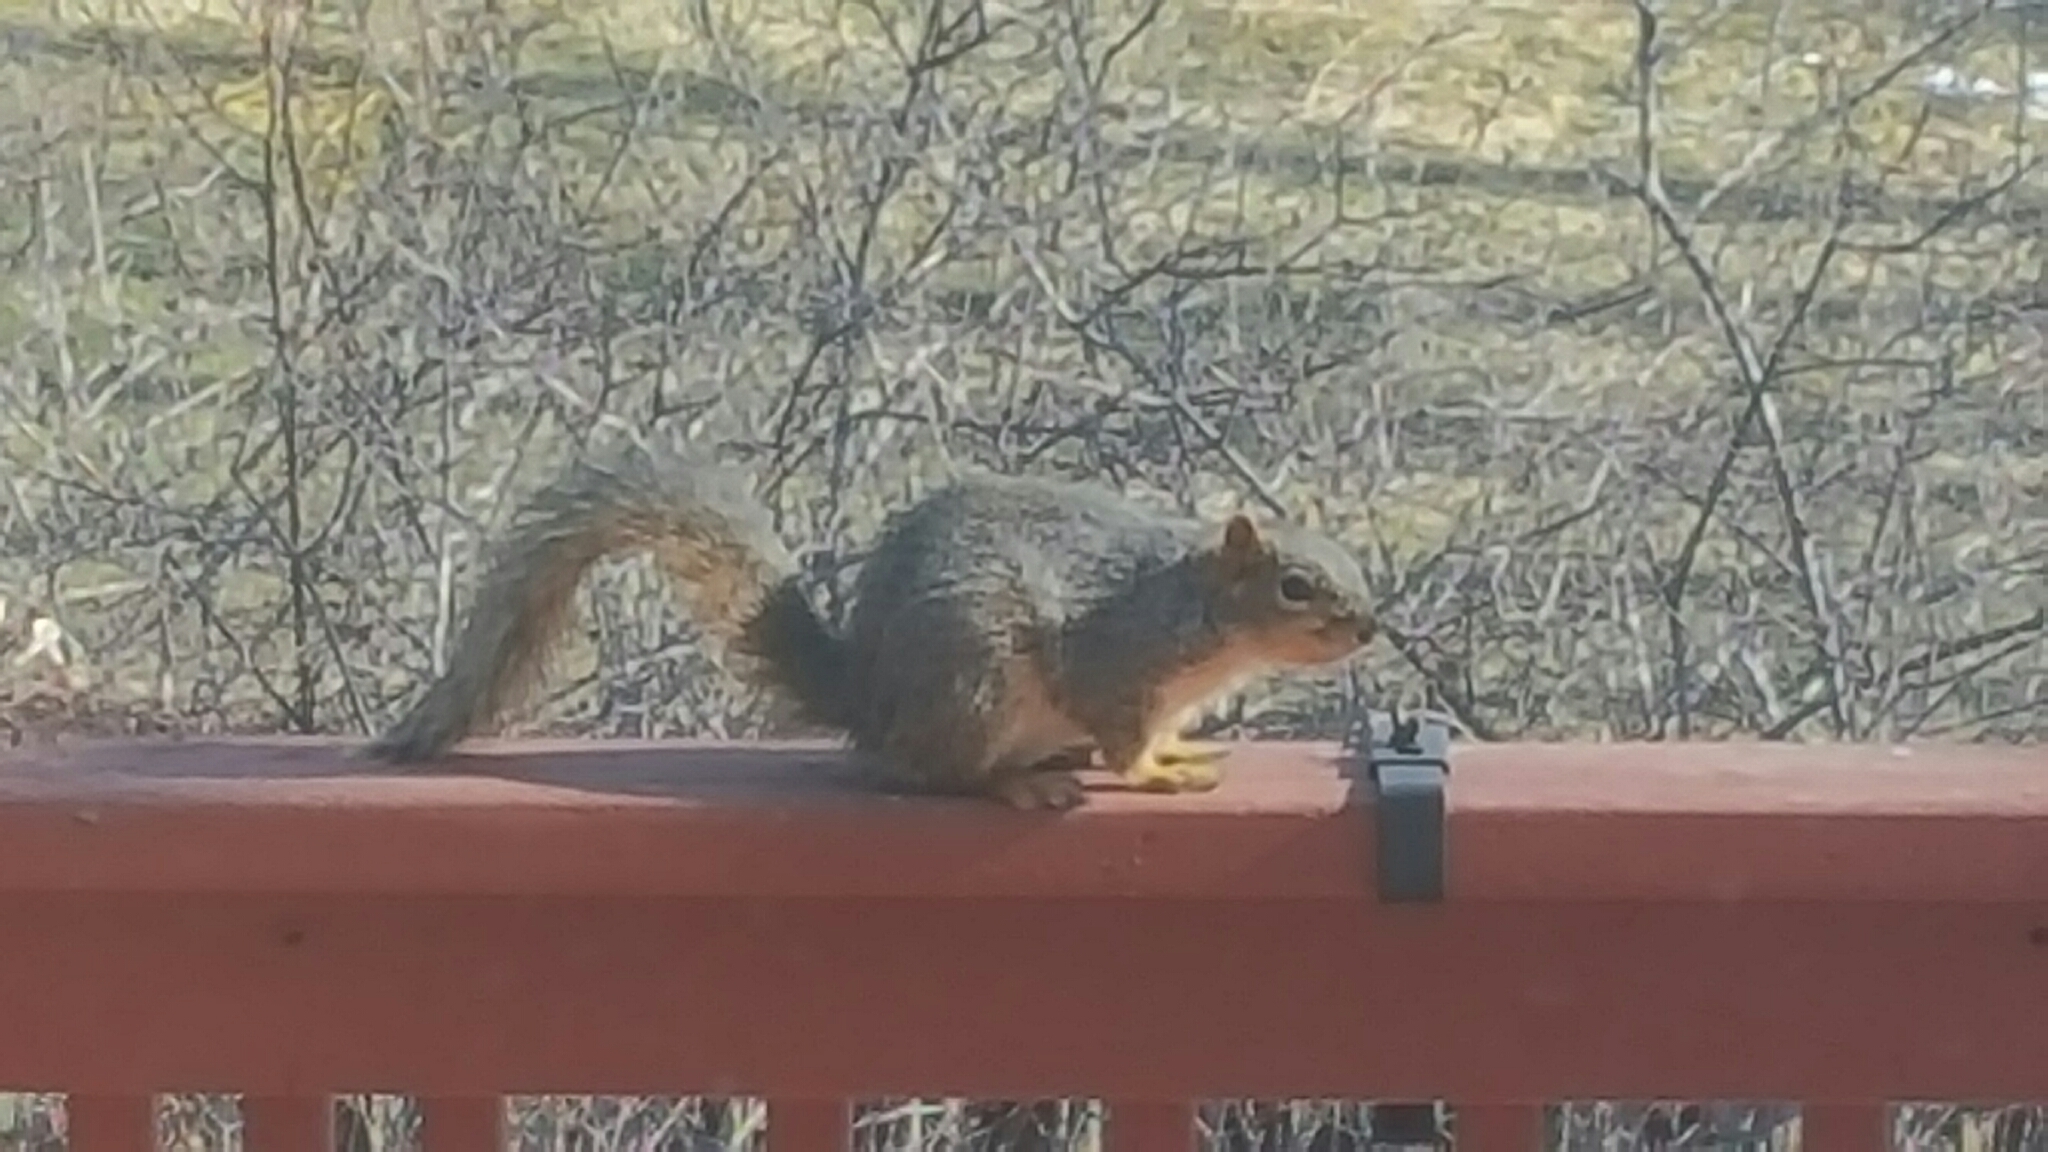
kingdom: Animalia
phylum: Chordata
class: Mammalia
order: Rodentia
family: Sciuridae
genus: Sciurus
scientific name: Sciurus niger
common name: Fox squirrel
